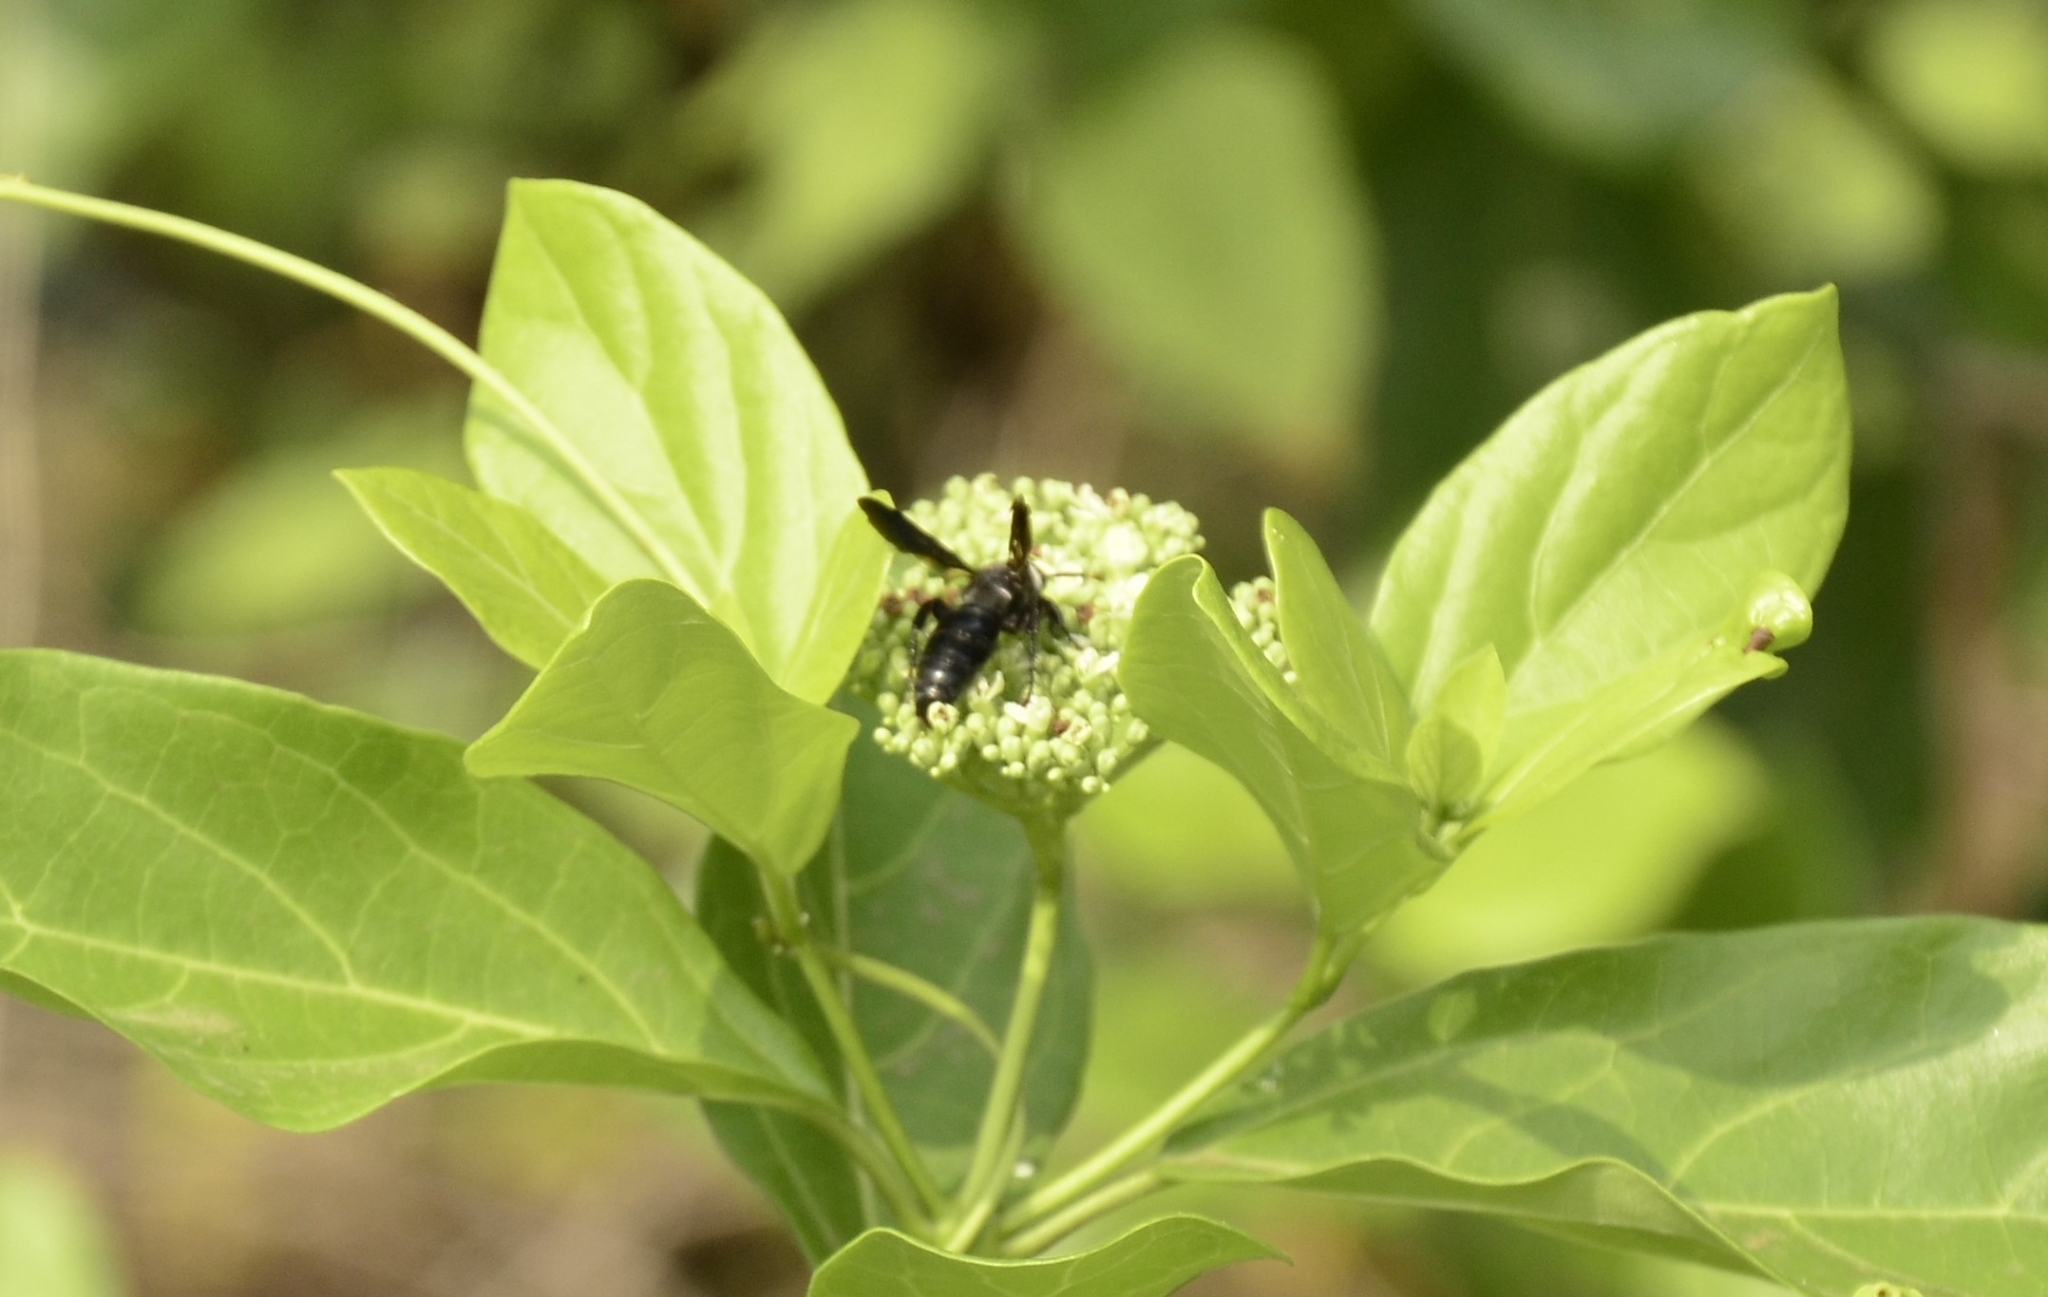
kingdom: Animalia
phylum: Arthropoda
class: Insecta
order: Hymenoptera
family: Scoliidae
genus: Campsomeriella
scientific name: Campsomeriella collaris
